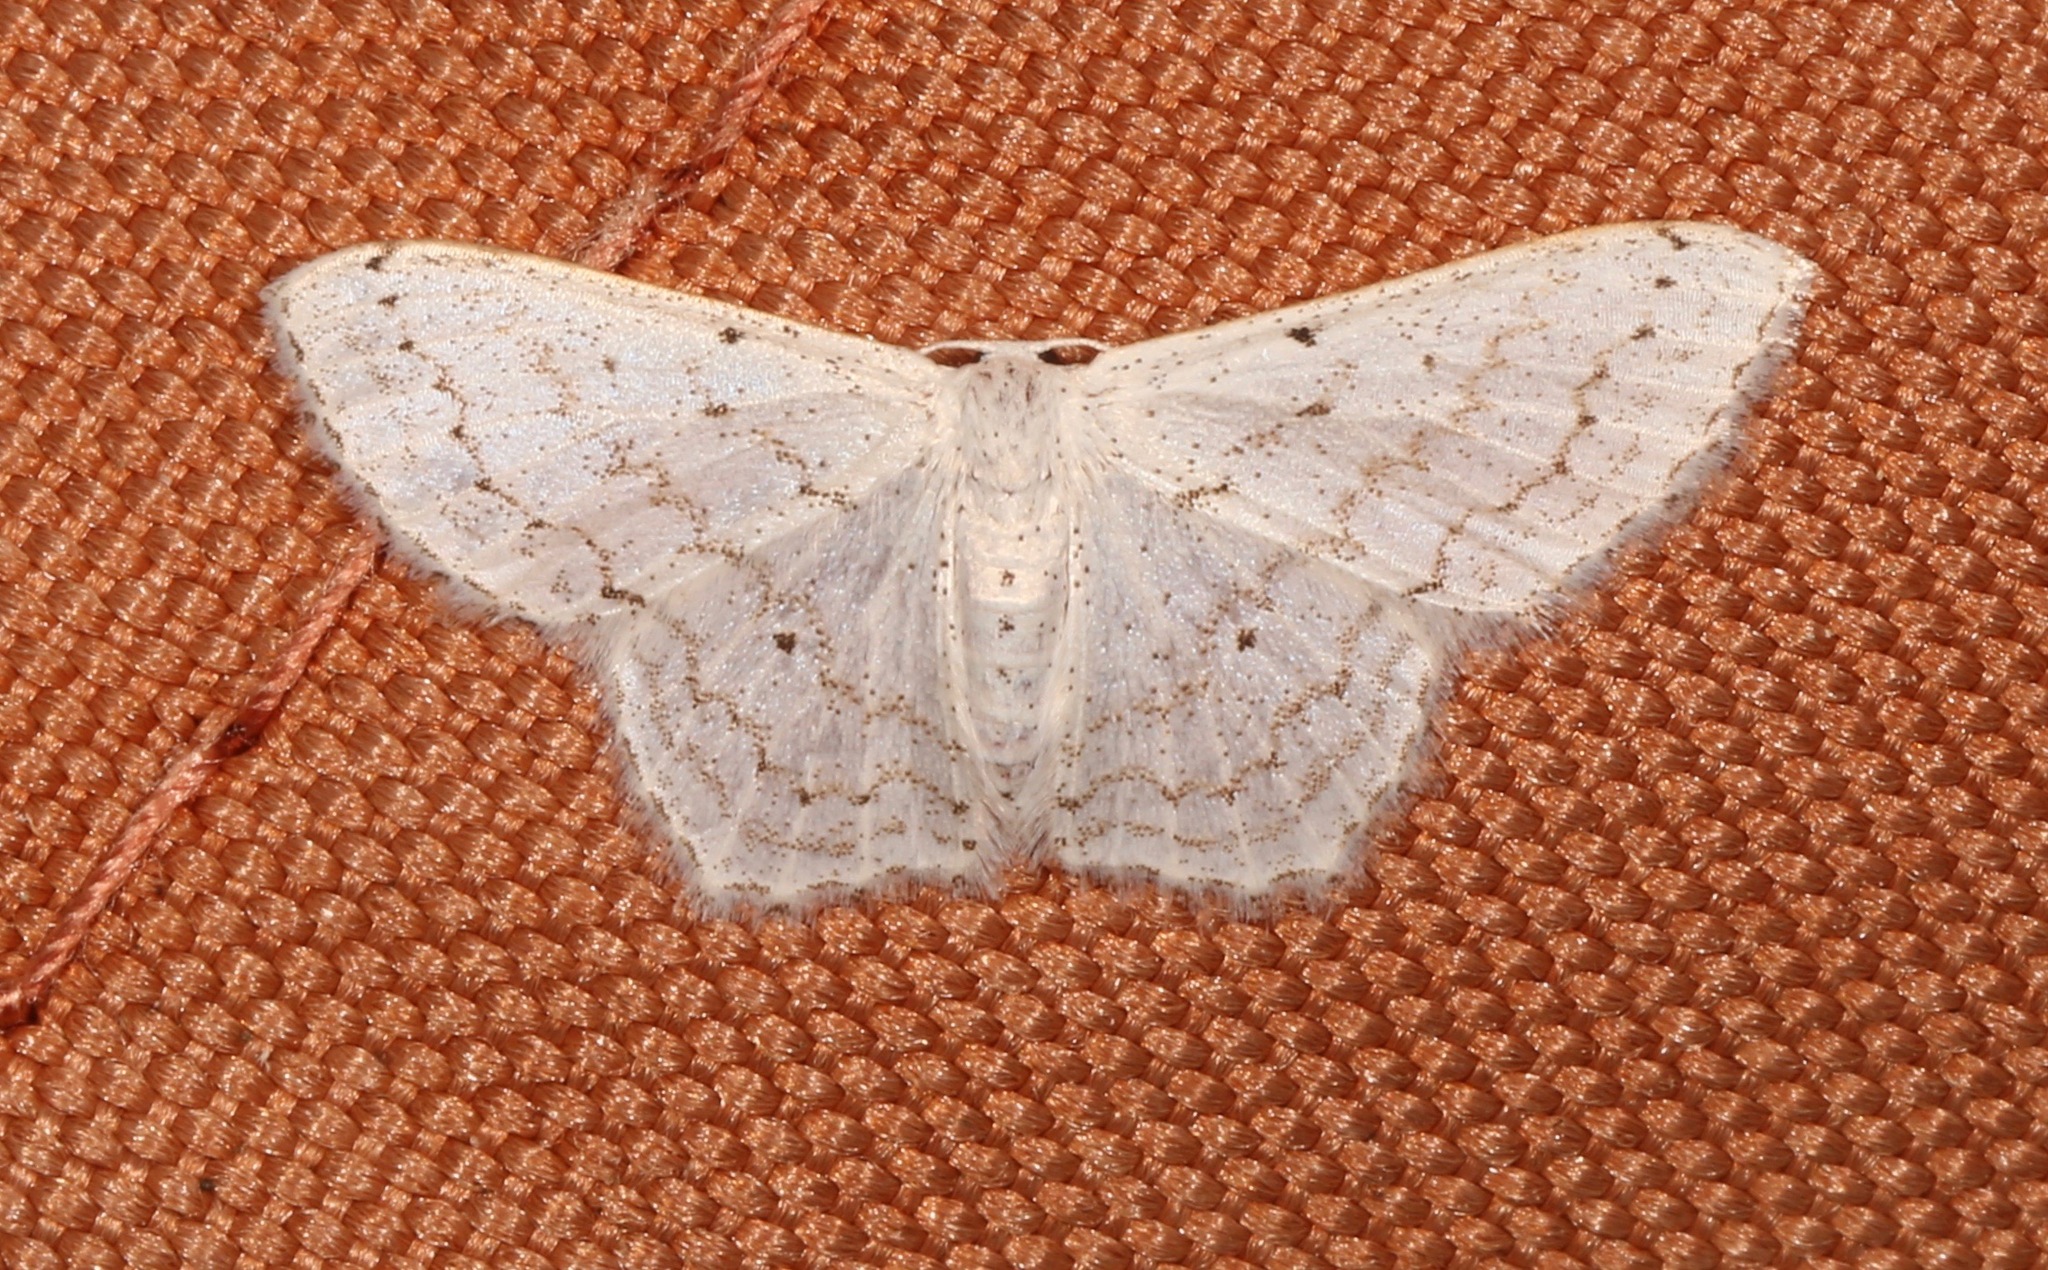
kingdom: Animalia
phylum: Arthropoda
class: Insecta
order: Lepidoptera
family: Geometridae
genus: Idaea
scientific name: Idaea tacturata
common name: Dot-lined wave
